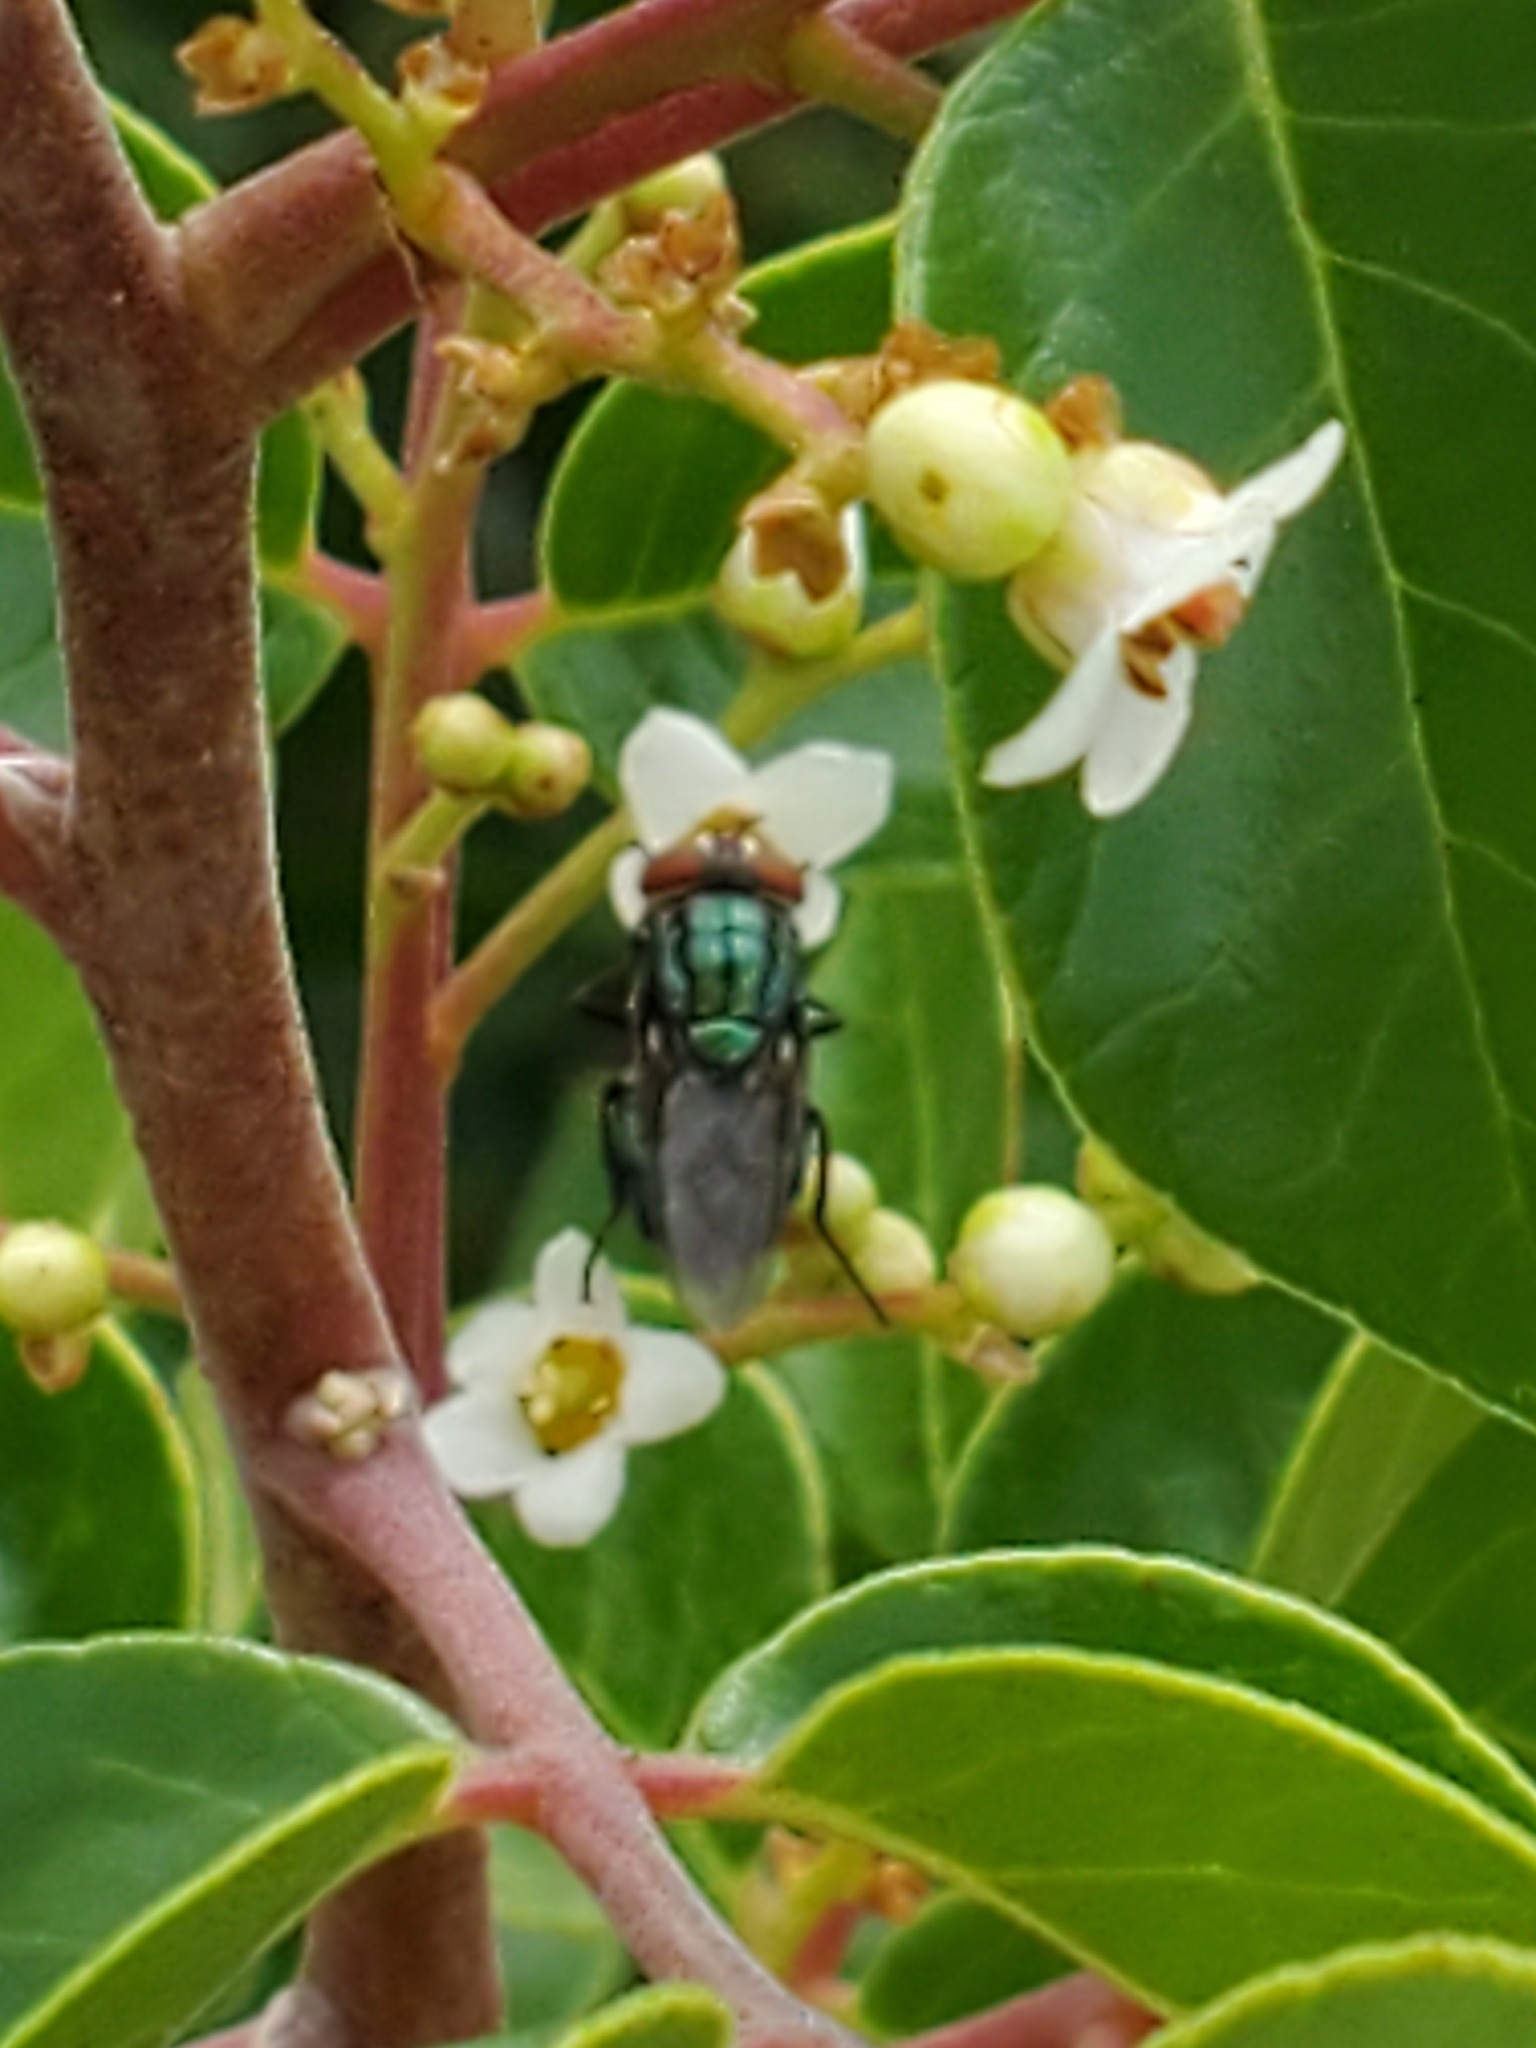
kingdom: Animalia
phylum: Arthropoda
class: Insecta
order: Diptera
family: Calliphoridae
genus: Cochliomyia
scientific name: Cochliomyia macellaria
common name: Secondary screwworm
